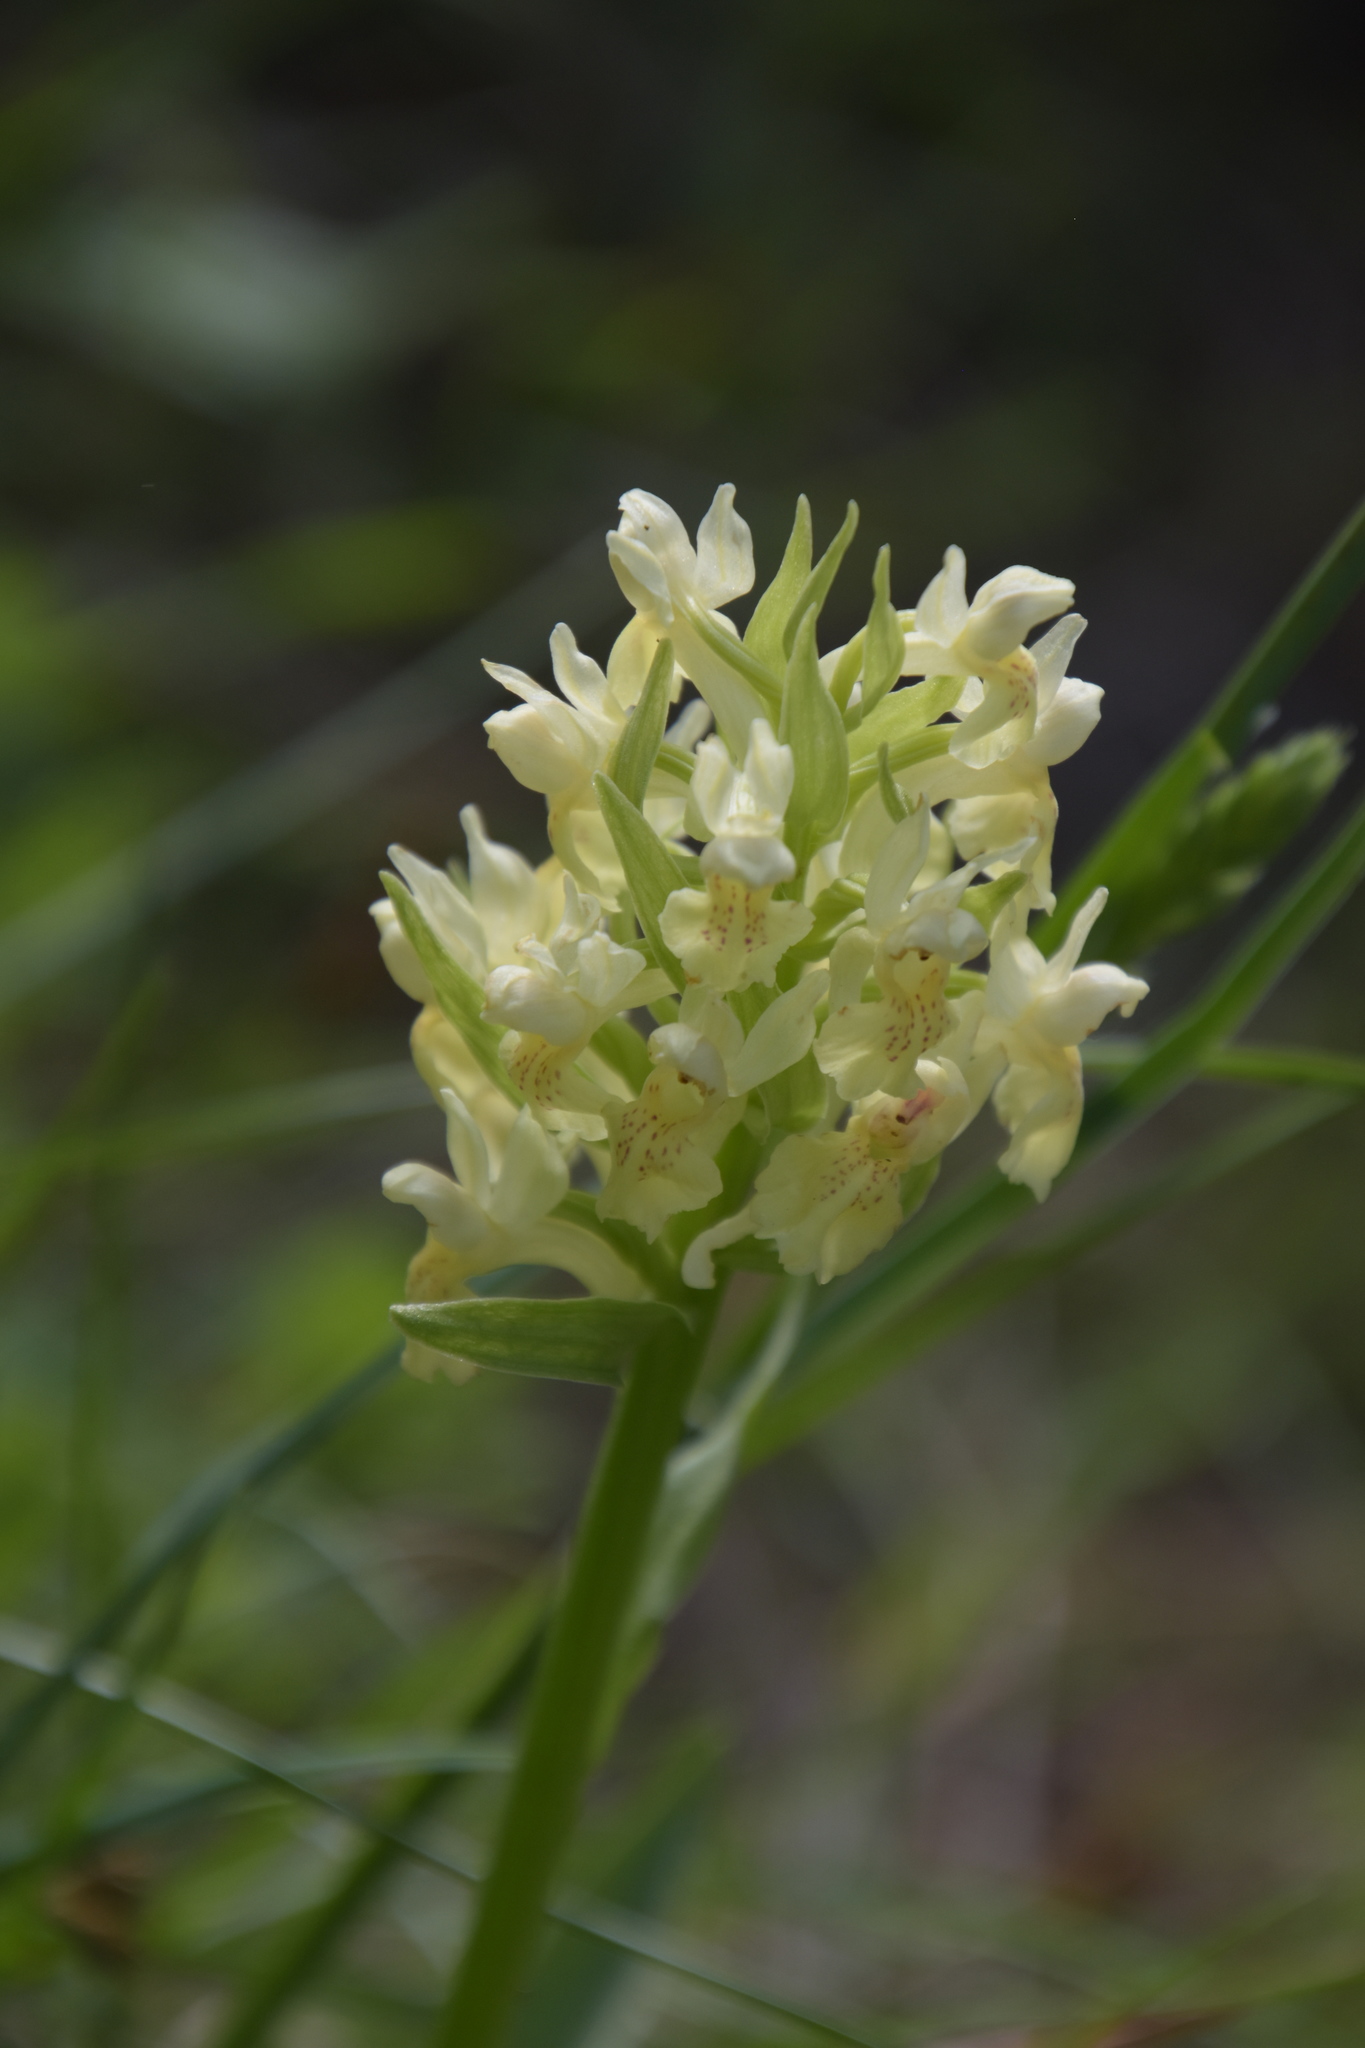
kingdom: Plantae
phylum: Tracheophyta
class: Liliopsida
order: Asparagales
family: Orchidaceae
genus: Dactylorhiza
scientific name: Dactylorhiza sambucina
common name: Elder-flowered orchid
